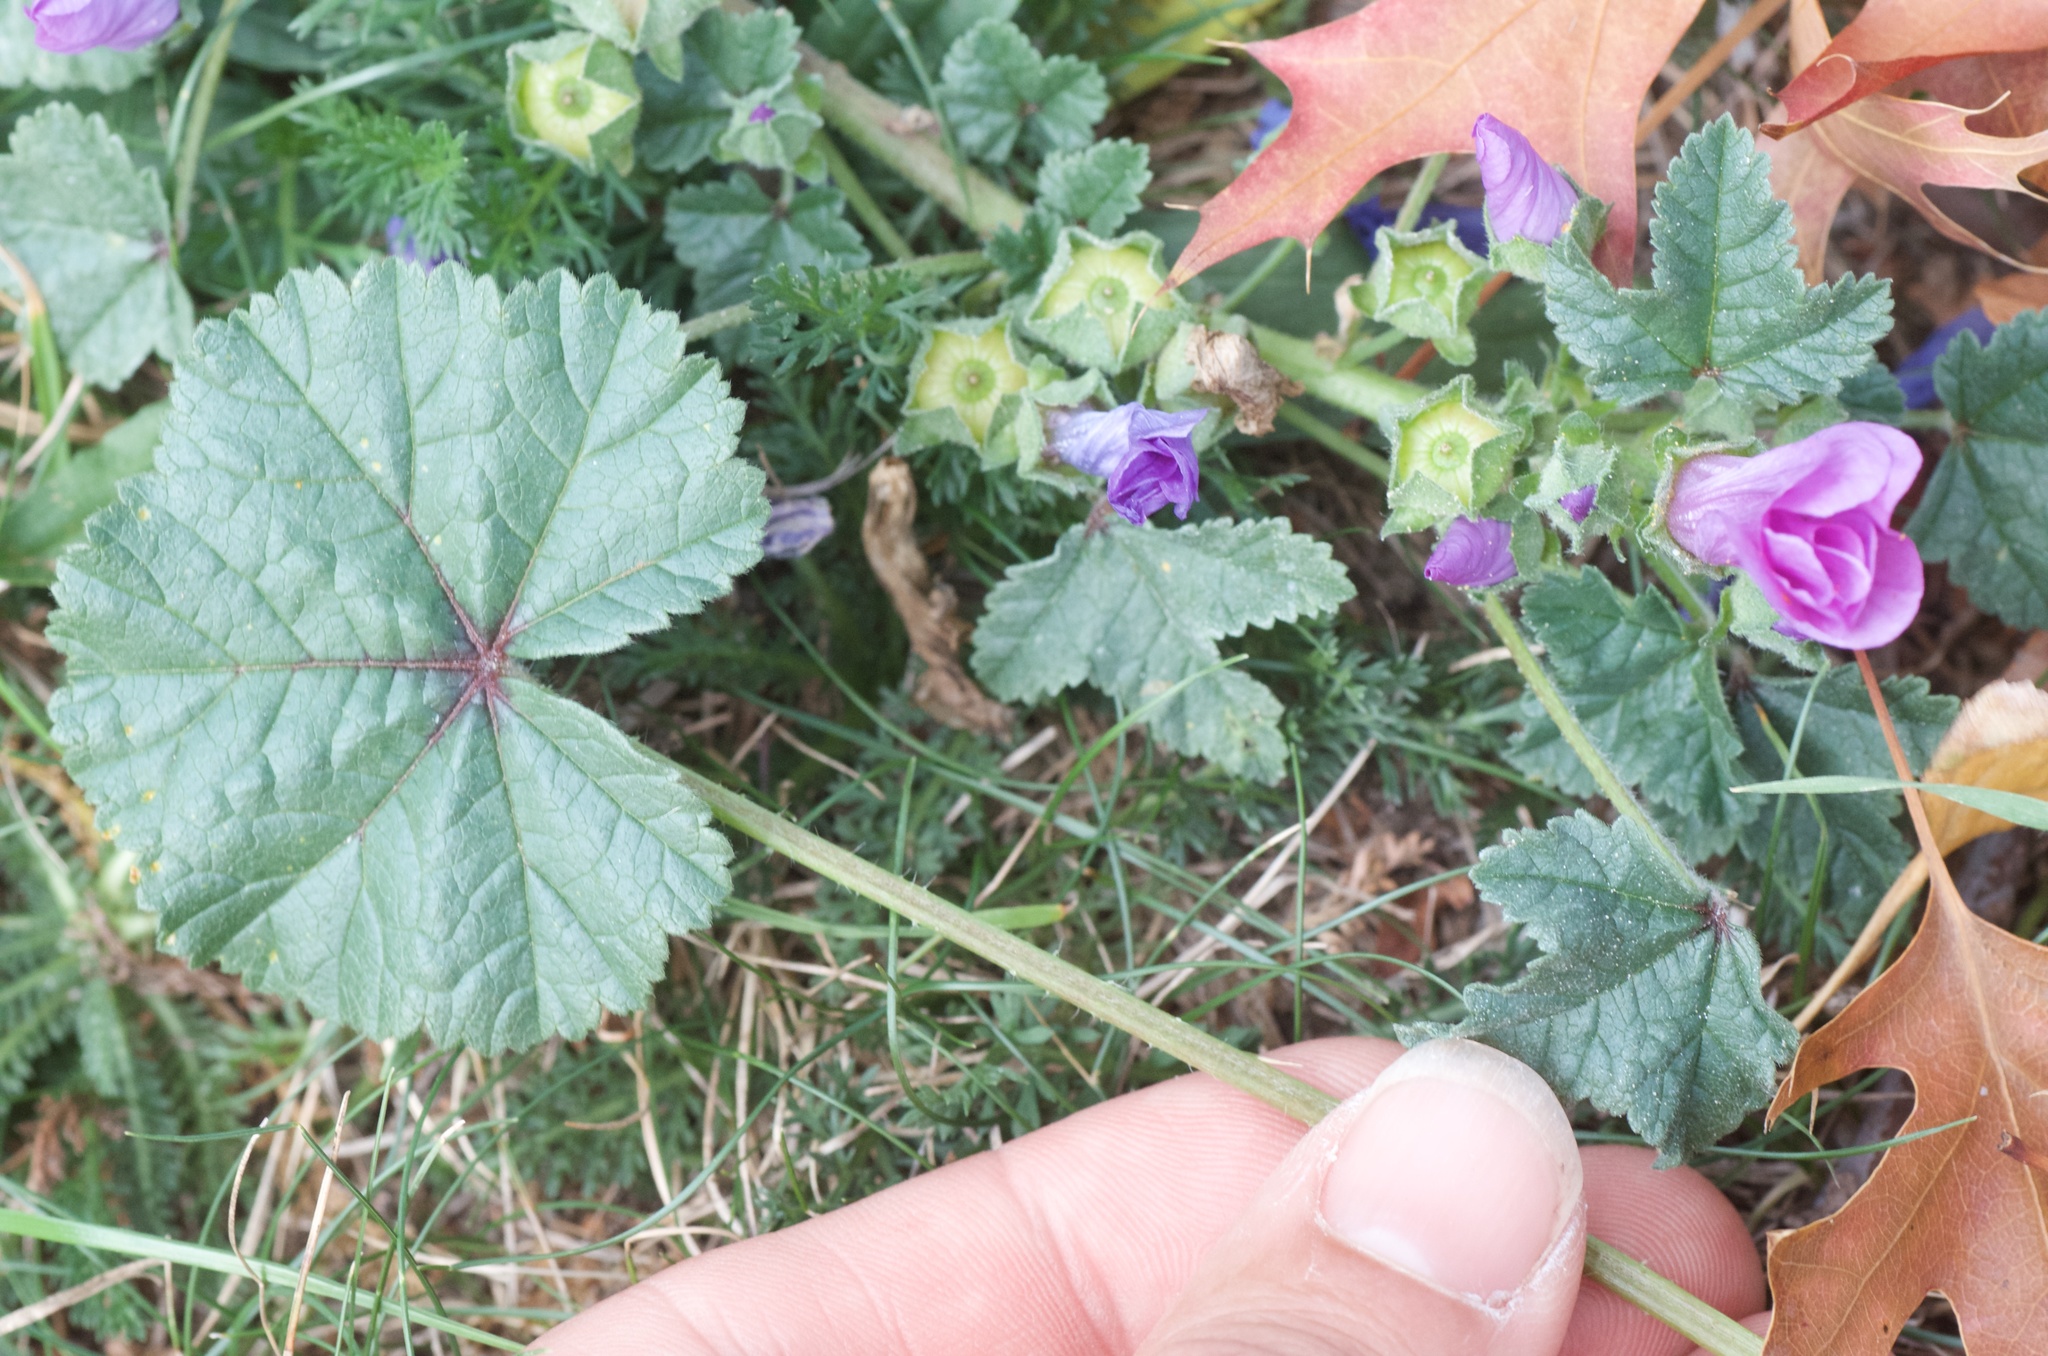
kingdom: Plantae
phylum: Tracheophyta
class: Magnoliopsida
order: Malvales
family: Malvaceae
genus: Malva
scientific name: Malva sylvestris
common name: Common mallow
